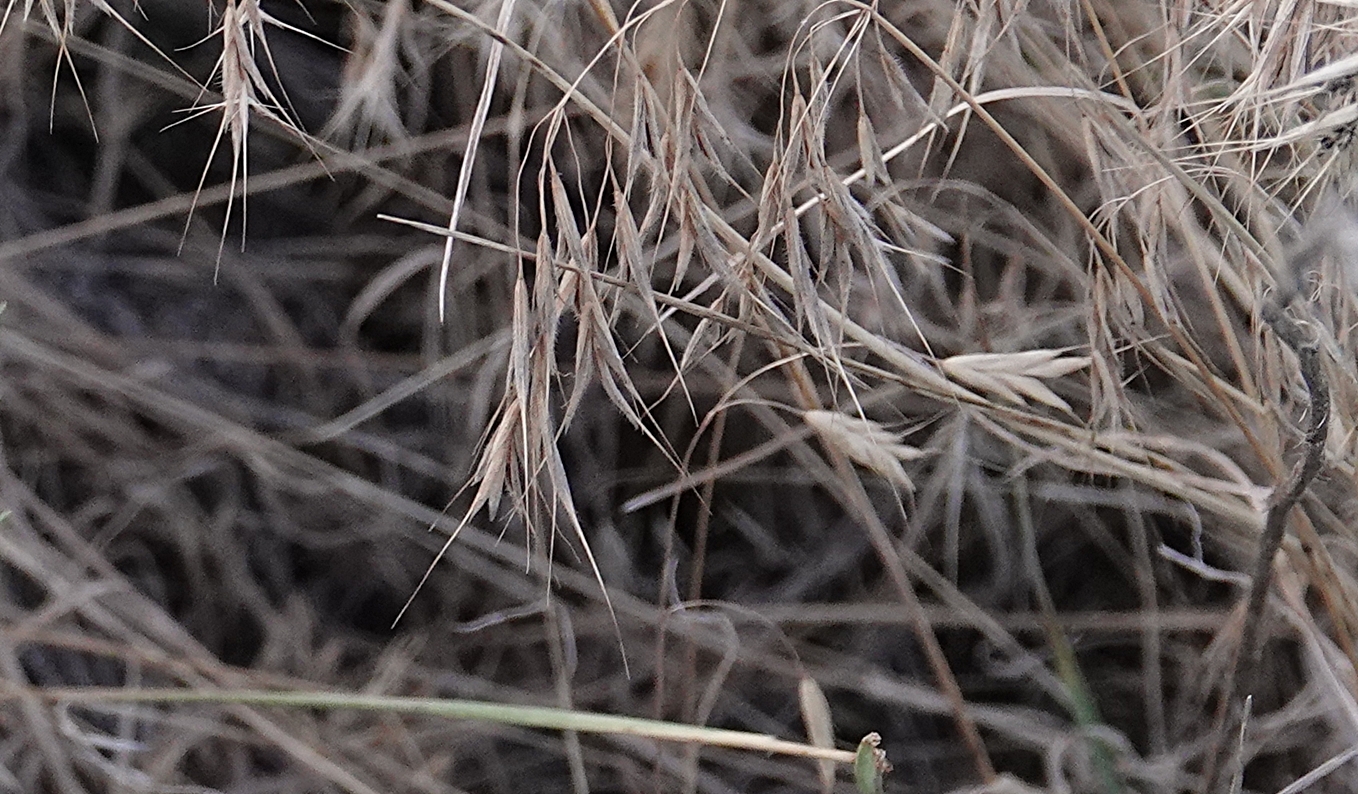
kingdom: Plantae
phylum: Tracheophyta
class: Liliopsida
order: Poales
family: Poaceae
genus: Bromus
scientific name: Bromus tectorum
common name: Cheatgrass
